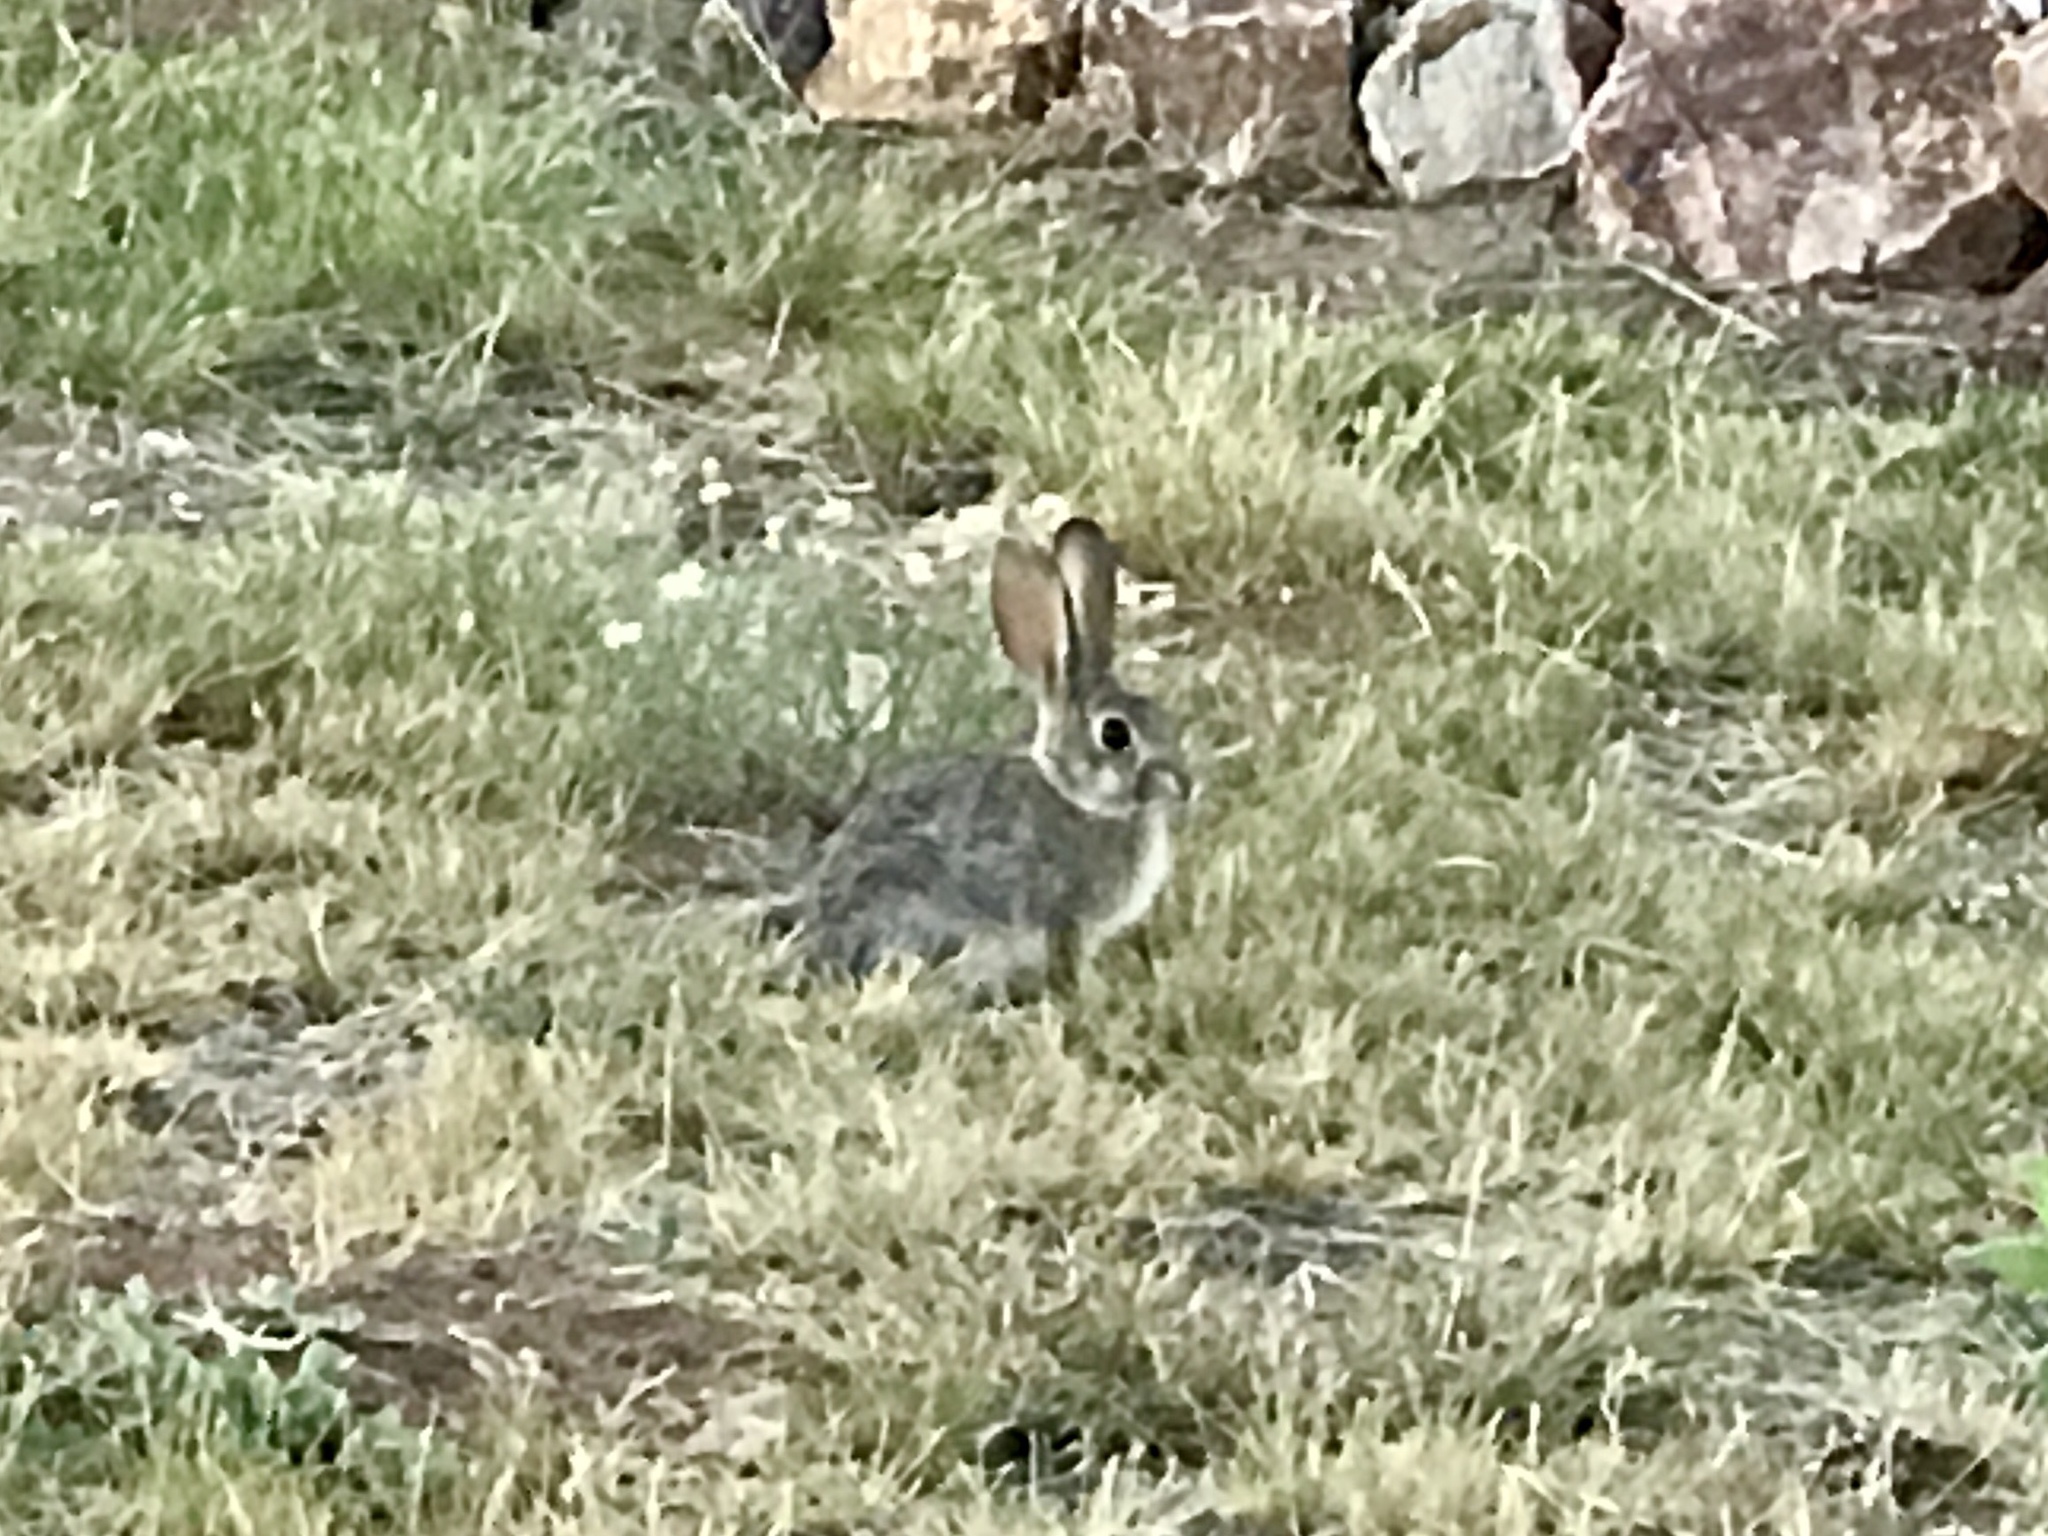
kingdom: Animalia
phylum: Chordata
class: Mammalia
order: Lagomorpha
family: Leporidae
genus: Sylvilagus
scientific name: Sylvilagus audubonii
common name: Desert cottontail
